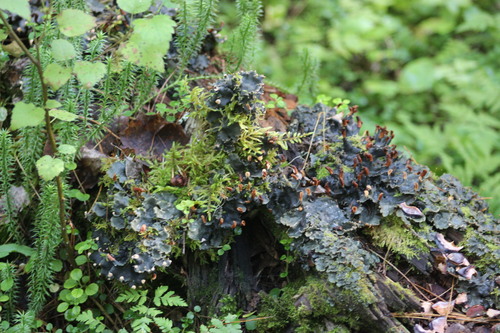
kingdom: Fungi
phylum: Ascomycota
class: Lecanoromycetes
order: Peltigerales
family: Peltigeraceae
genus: Peltigera
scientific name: Peltigera polydactylon
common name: Many-fruited pelt lichen
